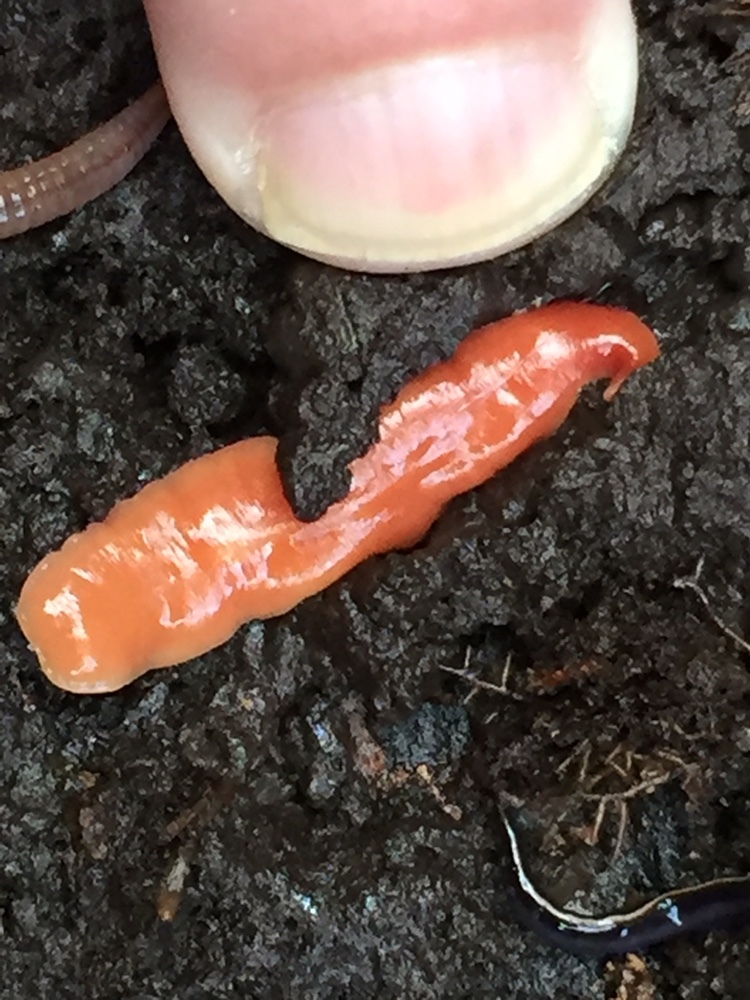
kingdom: Animalia
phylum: Platyhelminthes
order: Tricladida
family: Geoplanidae
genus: Australoplana
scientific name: Australoplana sanguinea
